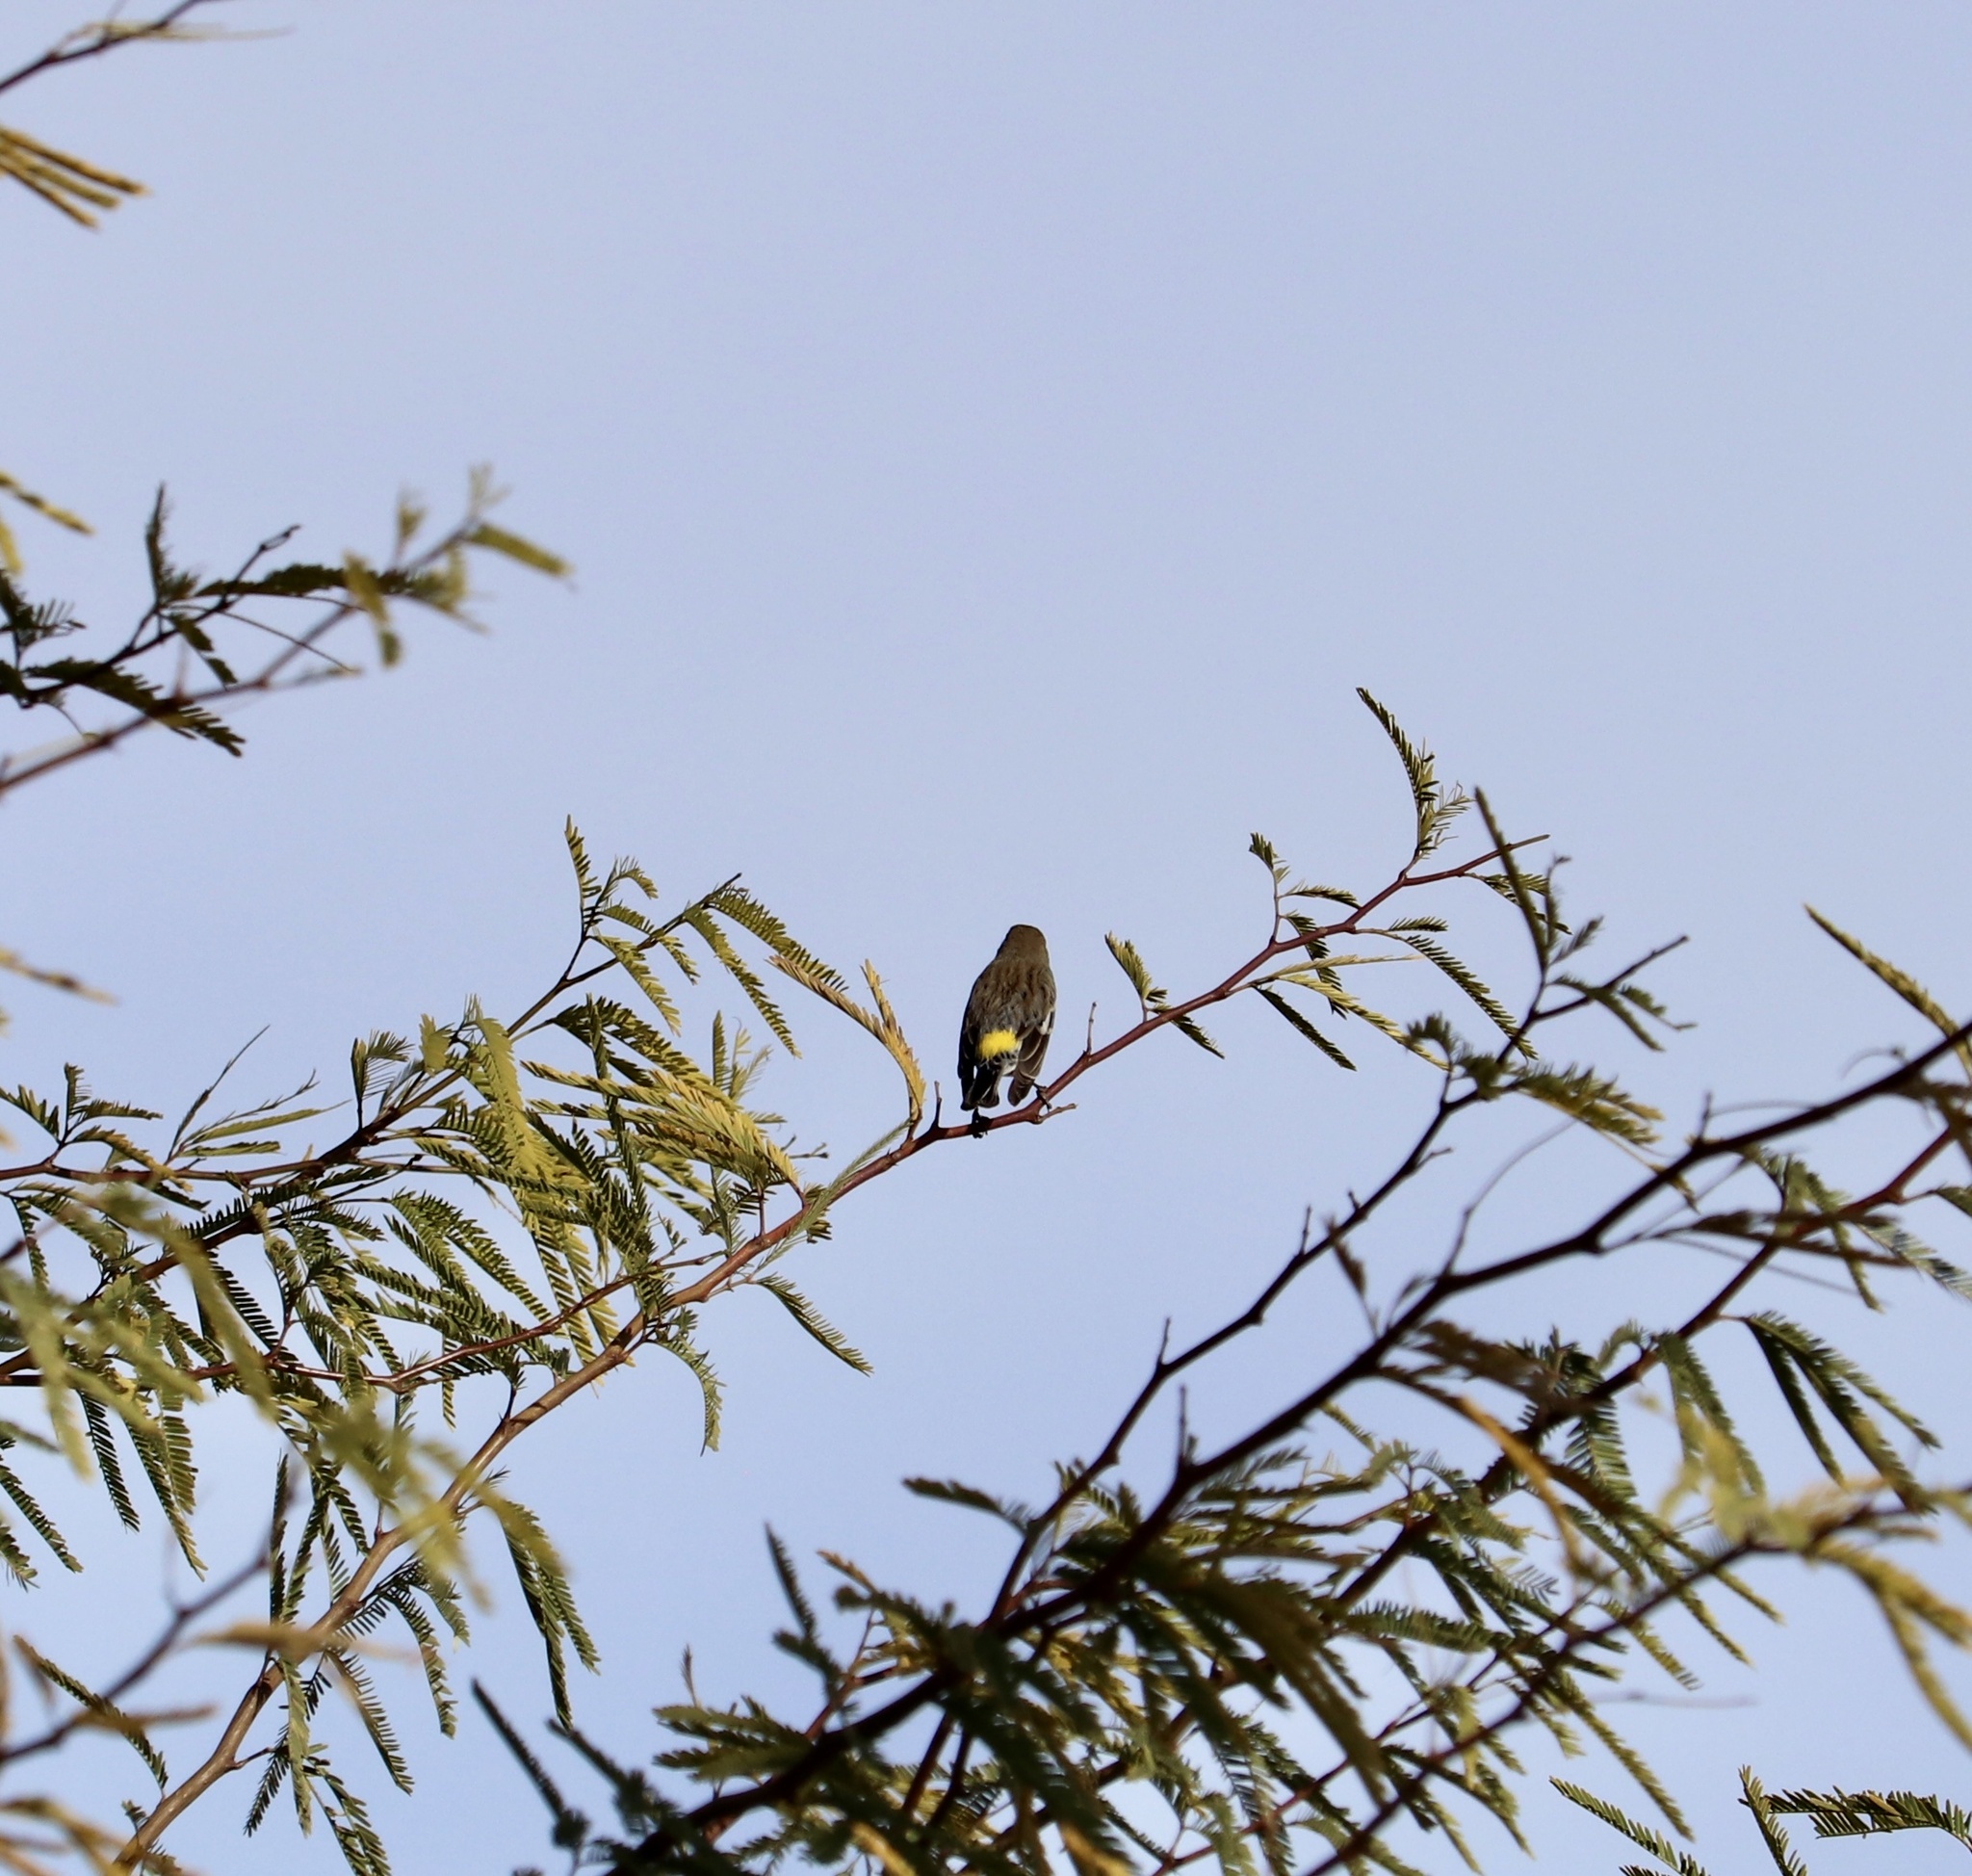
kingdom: Animalia
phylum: Chordata
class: Aves
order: Passeriformes
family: Parulidae
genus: Setophaga
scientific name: Setophaga coronata
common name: Myrtle warbler
